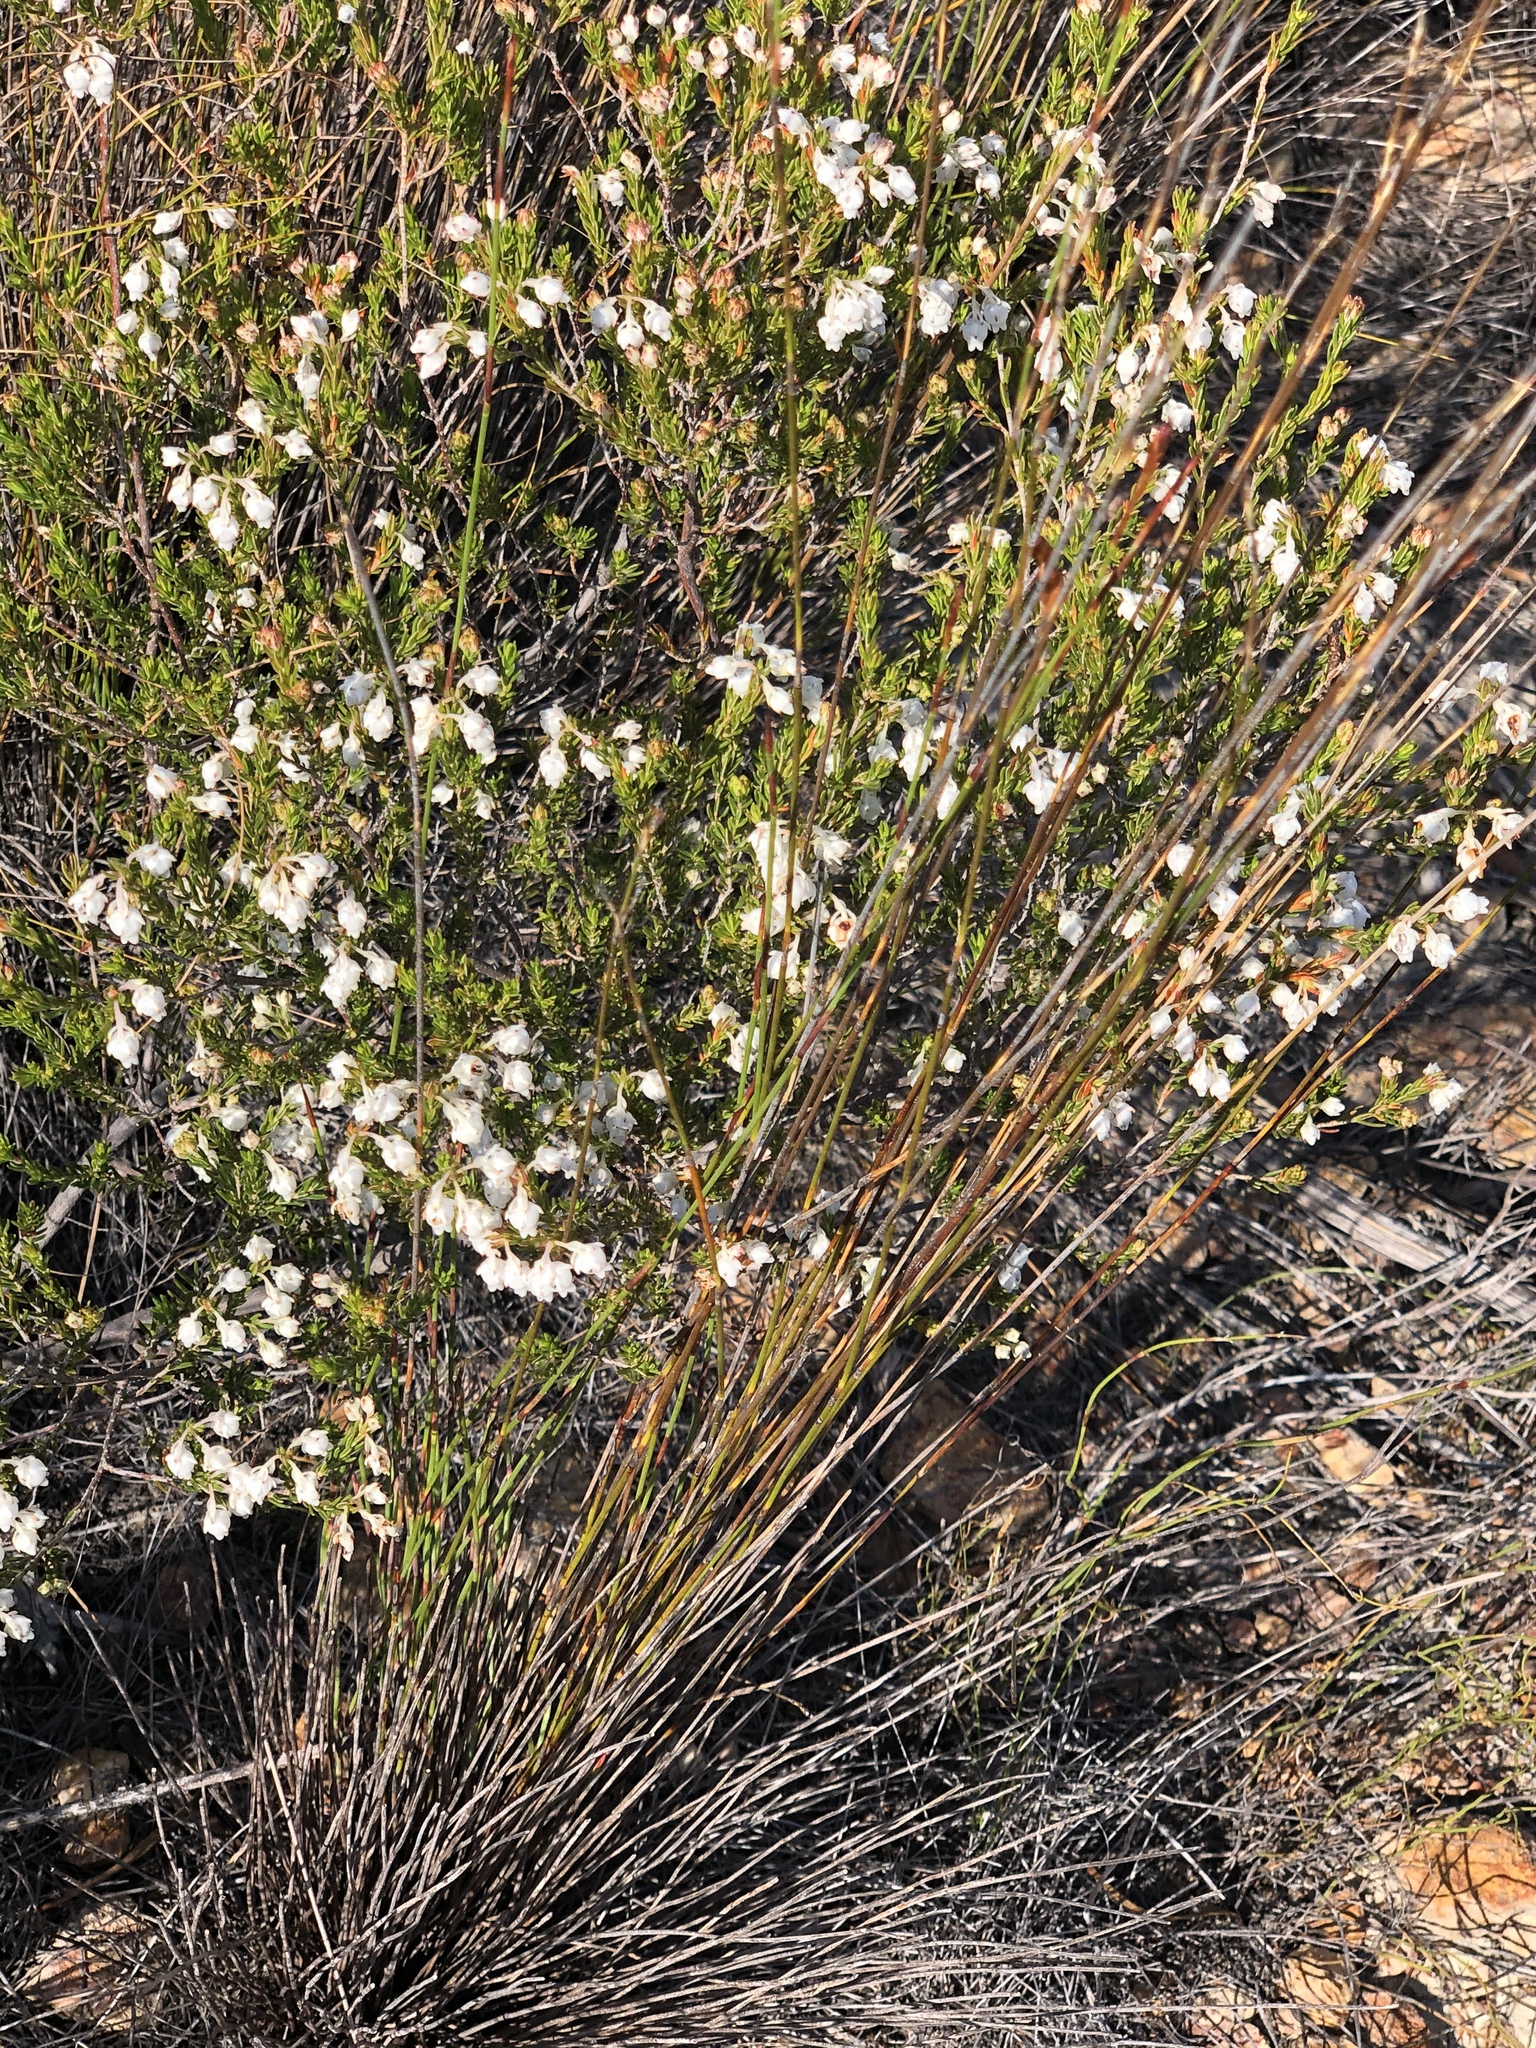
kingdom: Plantae
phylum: Tracheophyta
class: Magnoliopsida
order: Ericales
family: Ericaceae
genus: Erica
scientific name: Erica syngenesia
